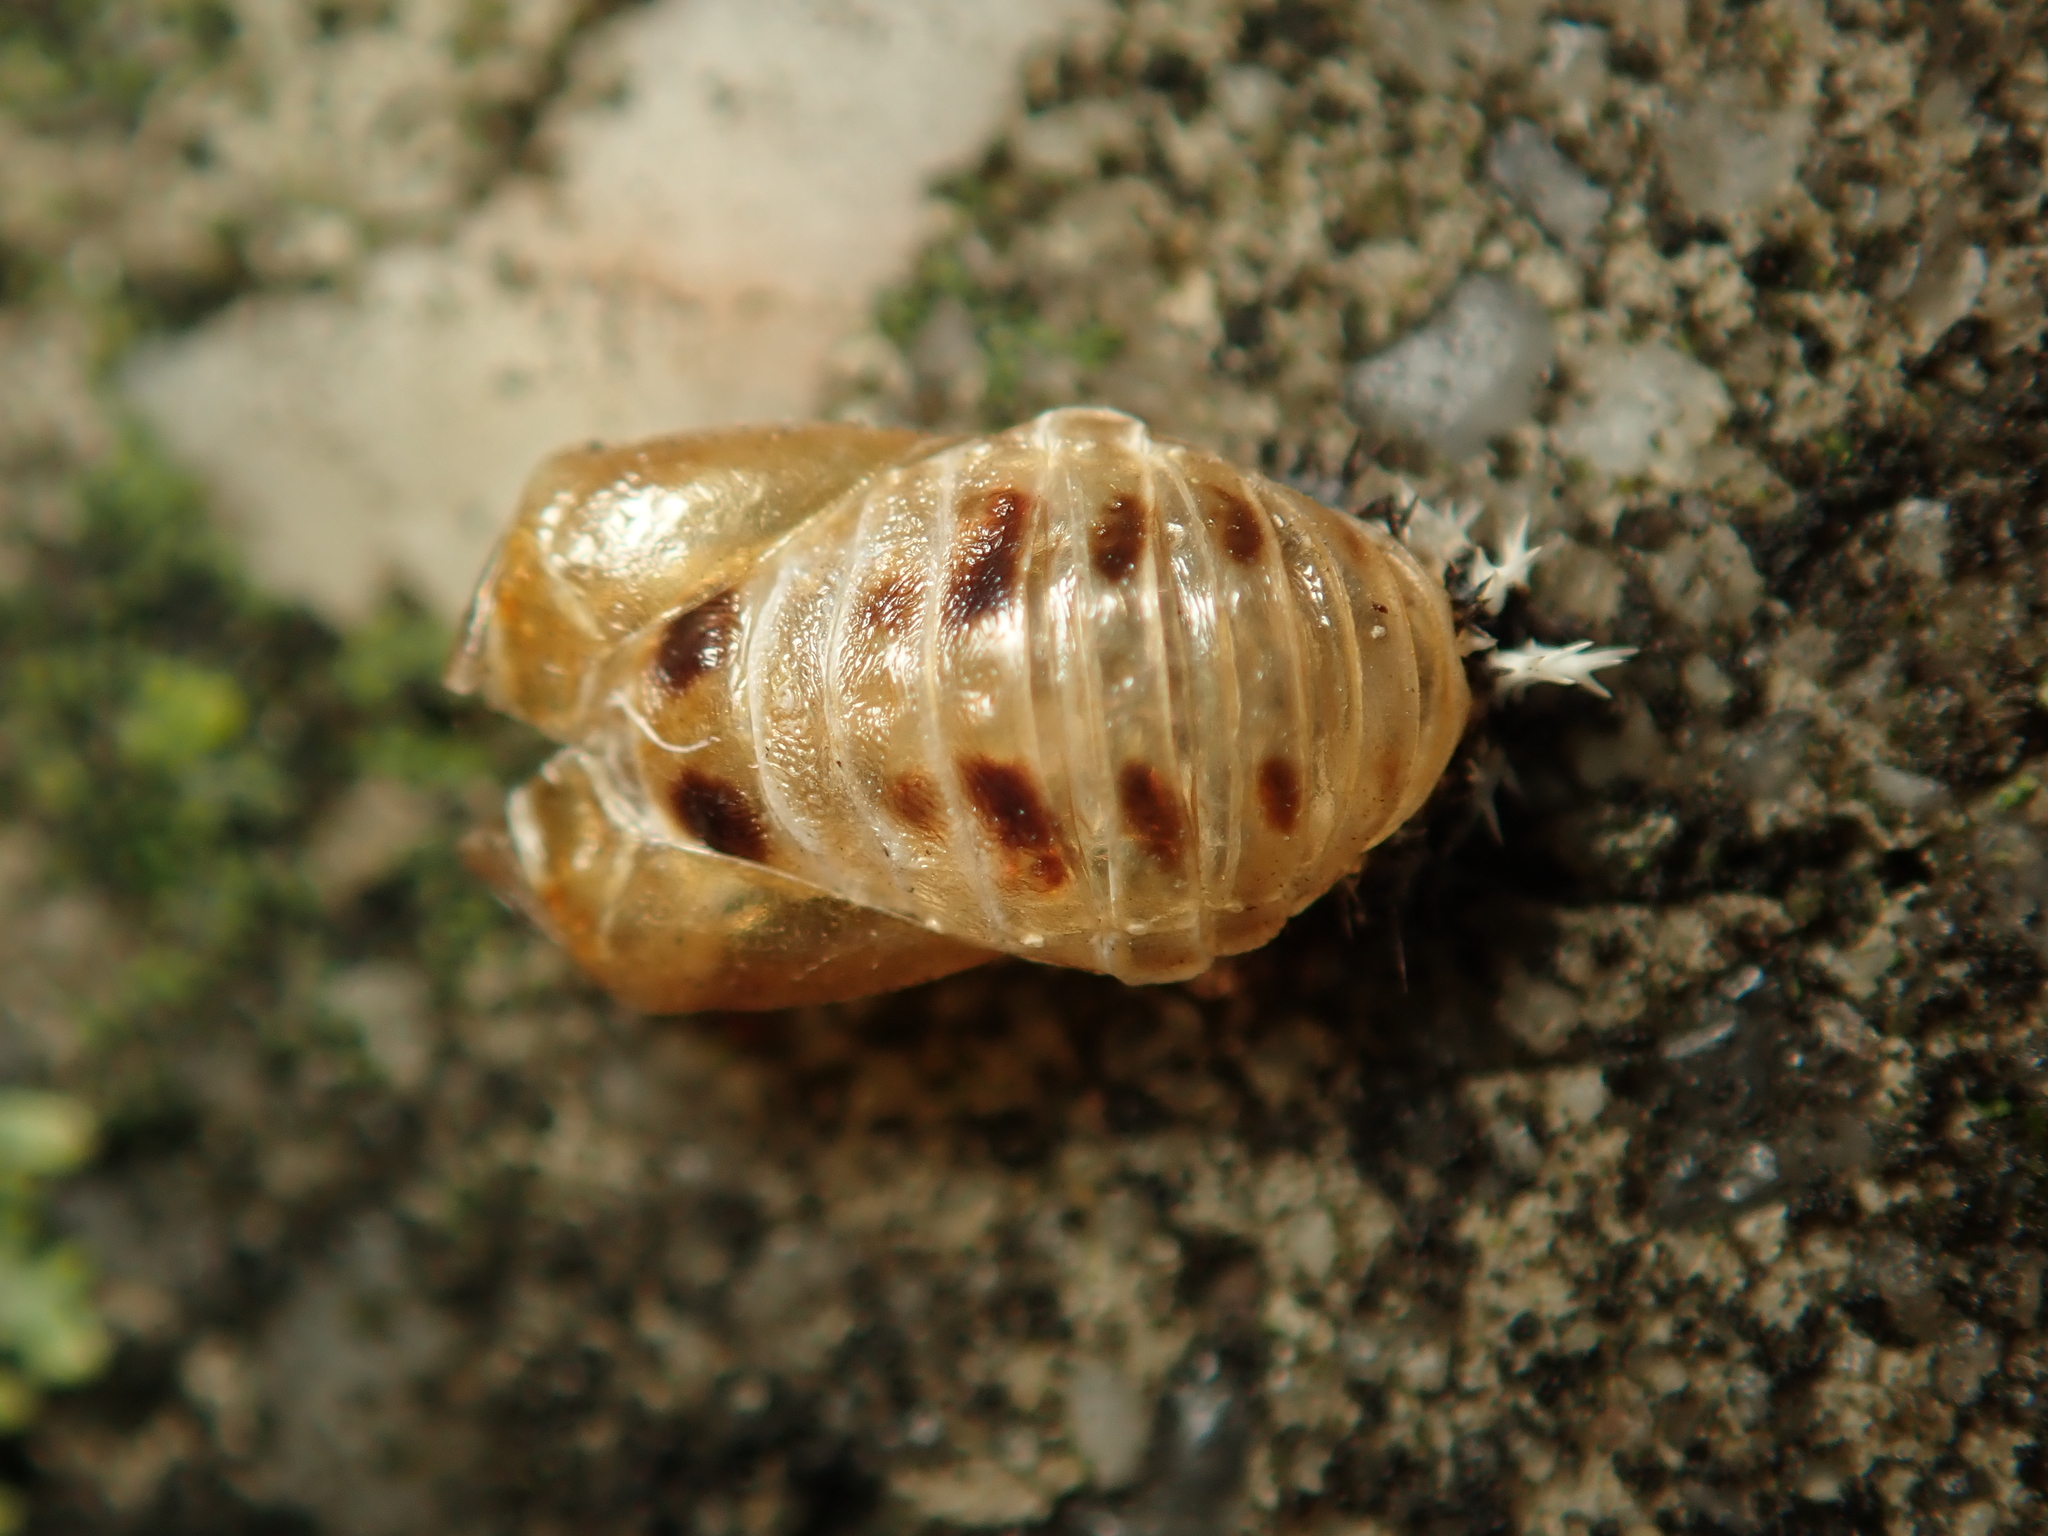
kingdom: Animalia
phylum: Arthropoda
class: Insecta
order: Coleoptera
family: Coccinellidae
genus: Harmonia
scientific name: Harmonia axyridis
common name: Harlequin ladybird
